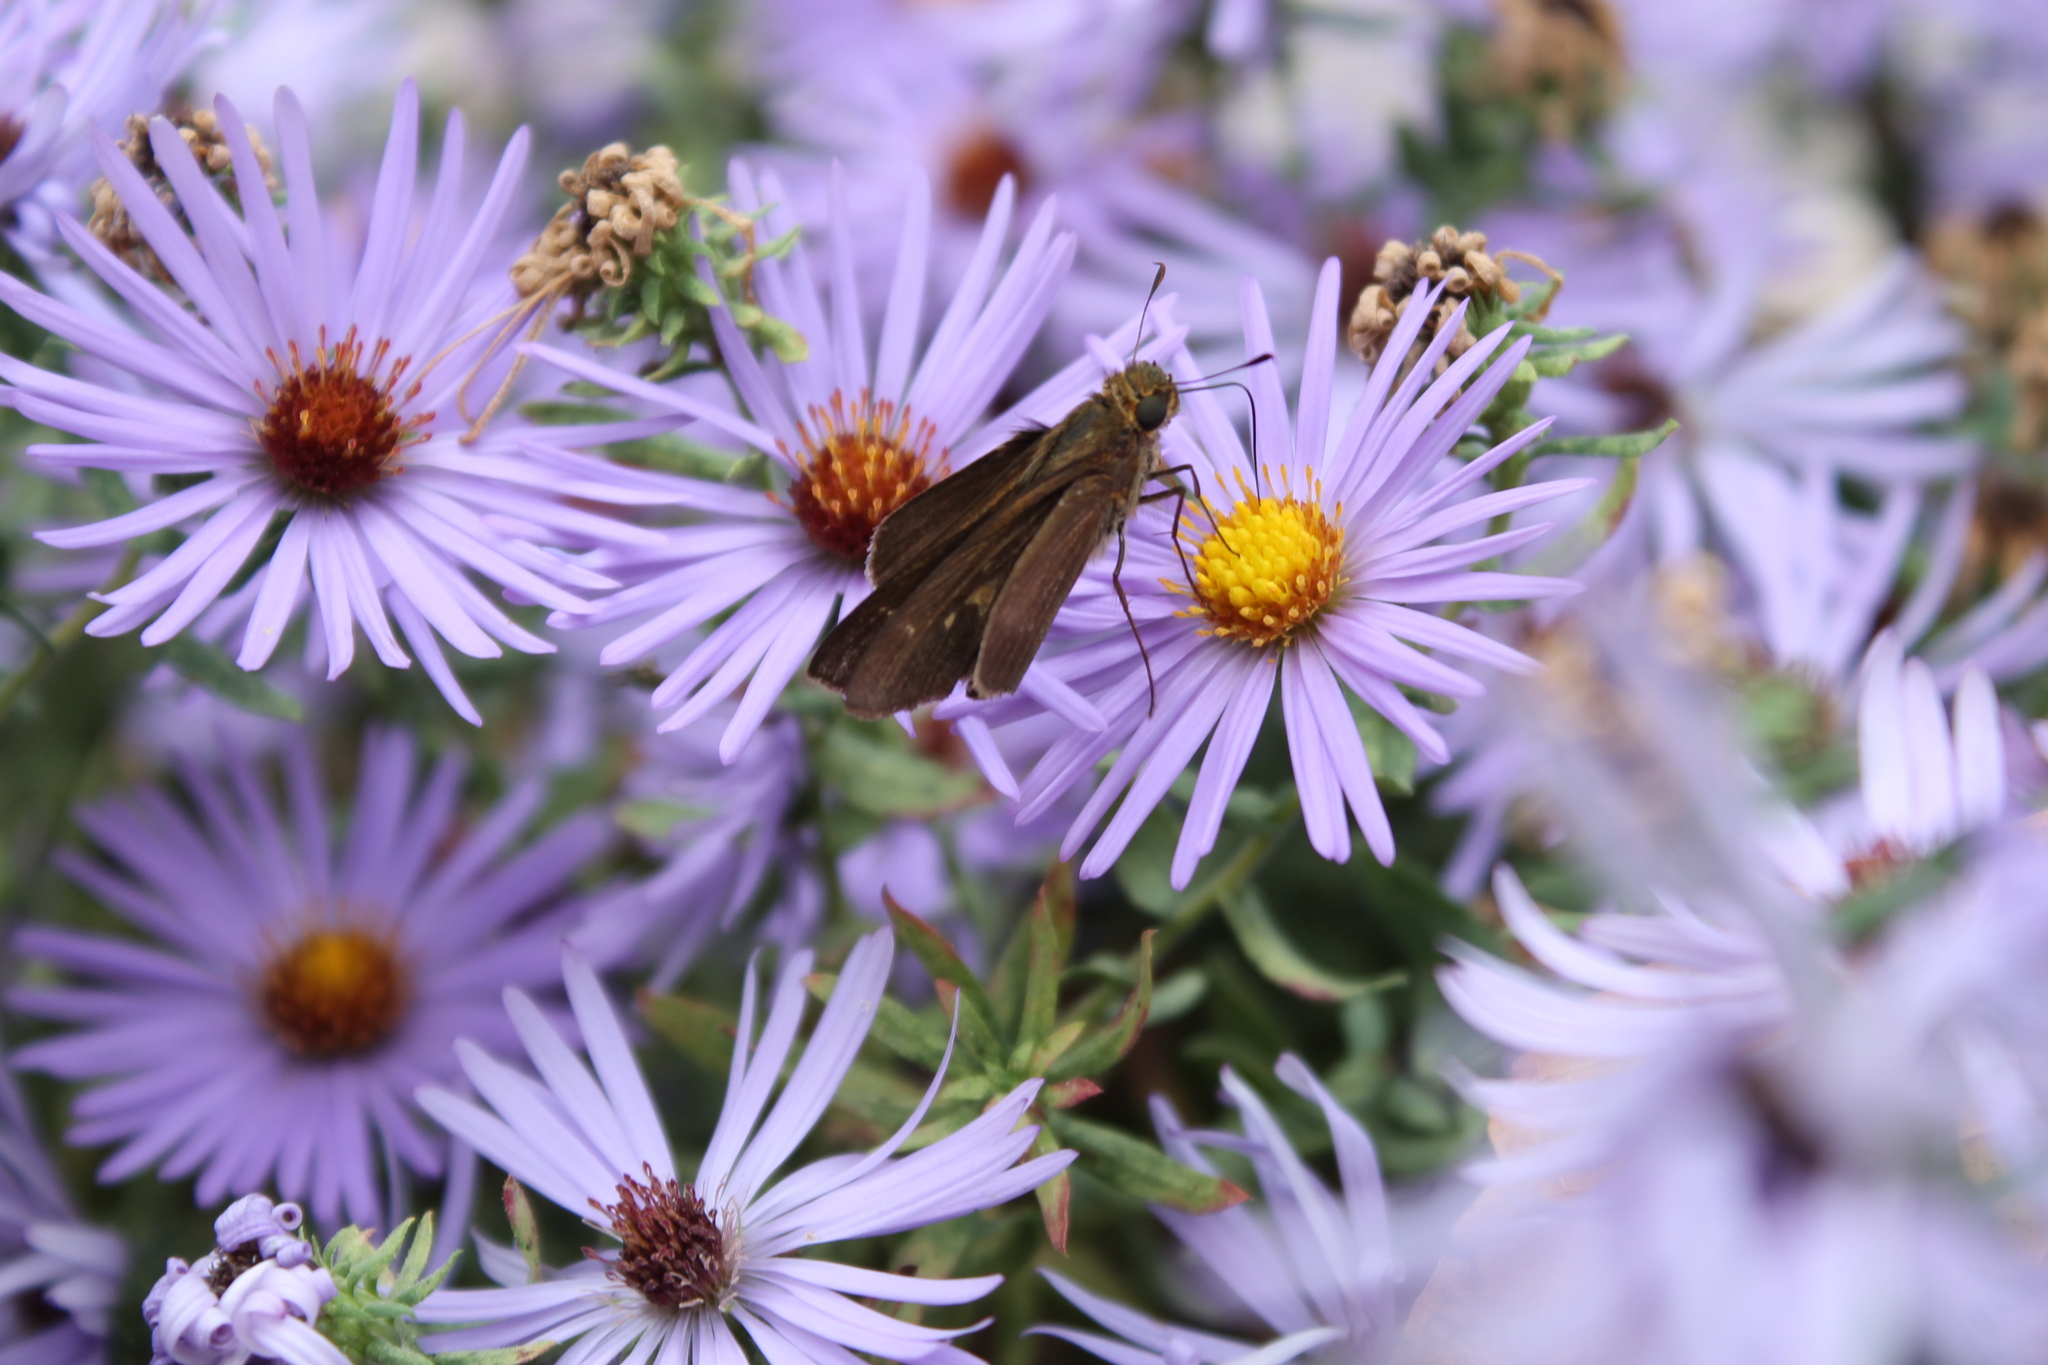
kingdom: Animalia
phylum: Arthropoda
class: Insecta
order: Lepidoptera
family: Hesperiidae
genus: Panoquina
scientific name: Panoquina ocola
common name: Ocola skipper
